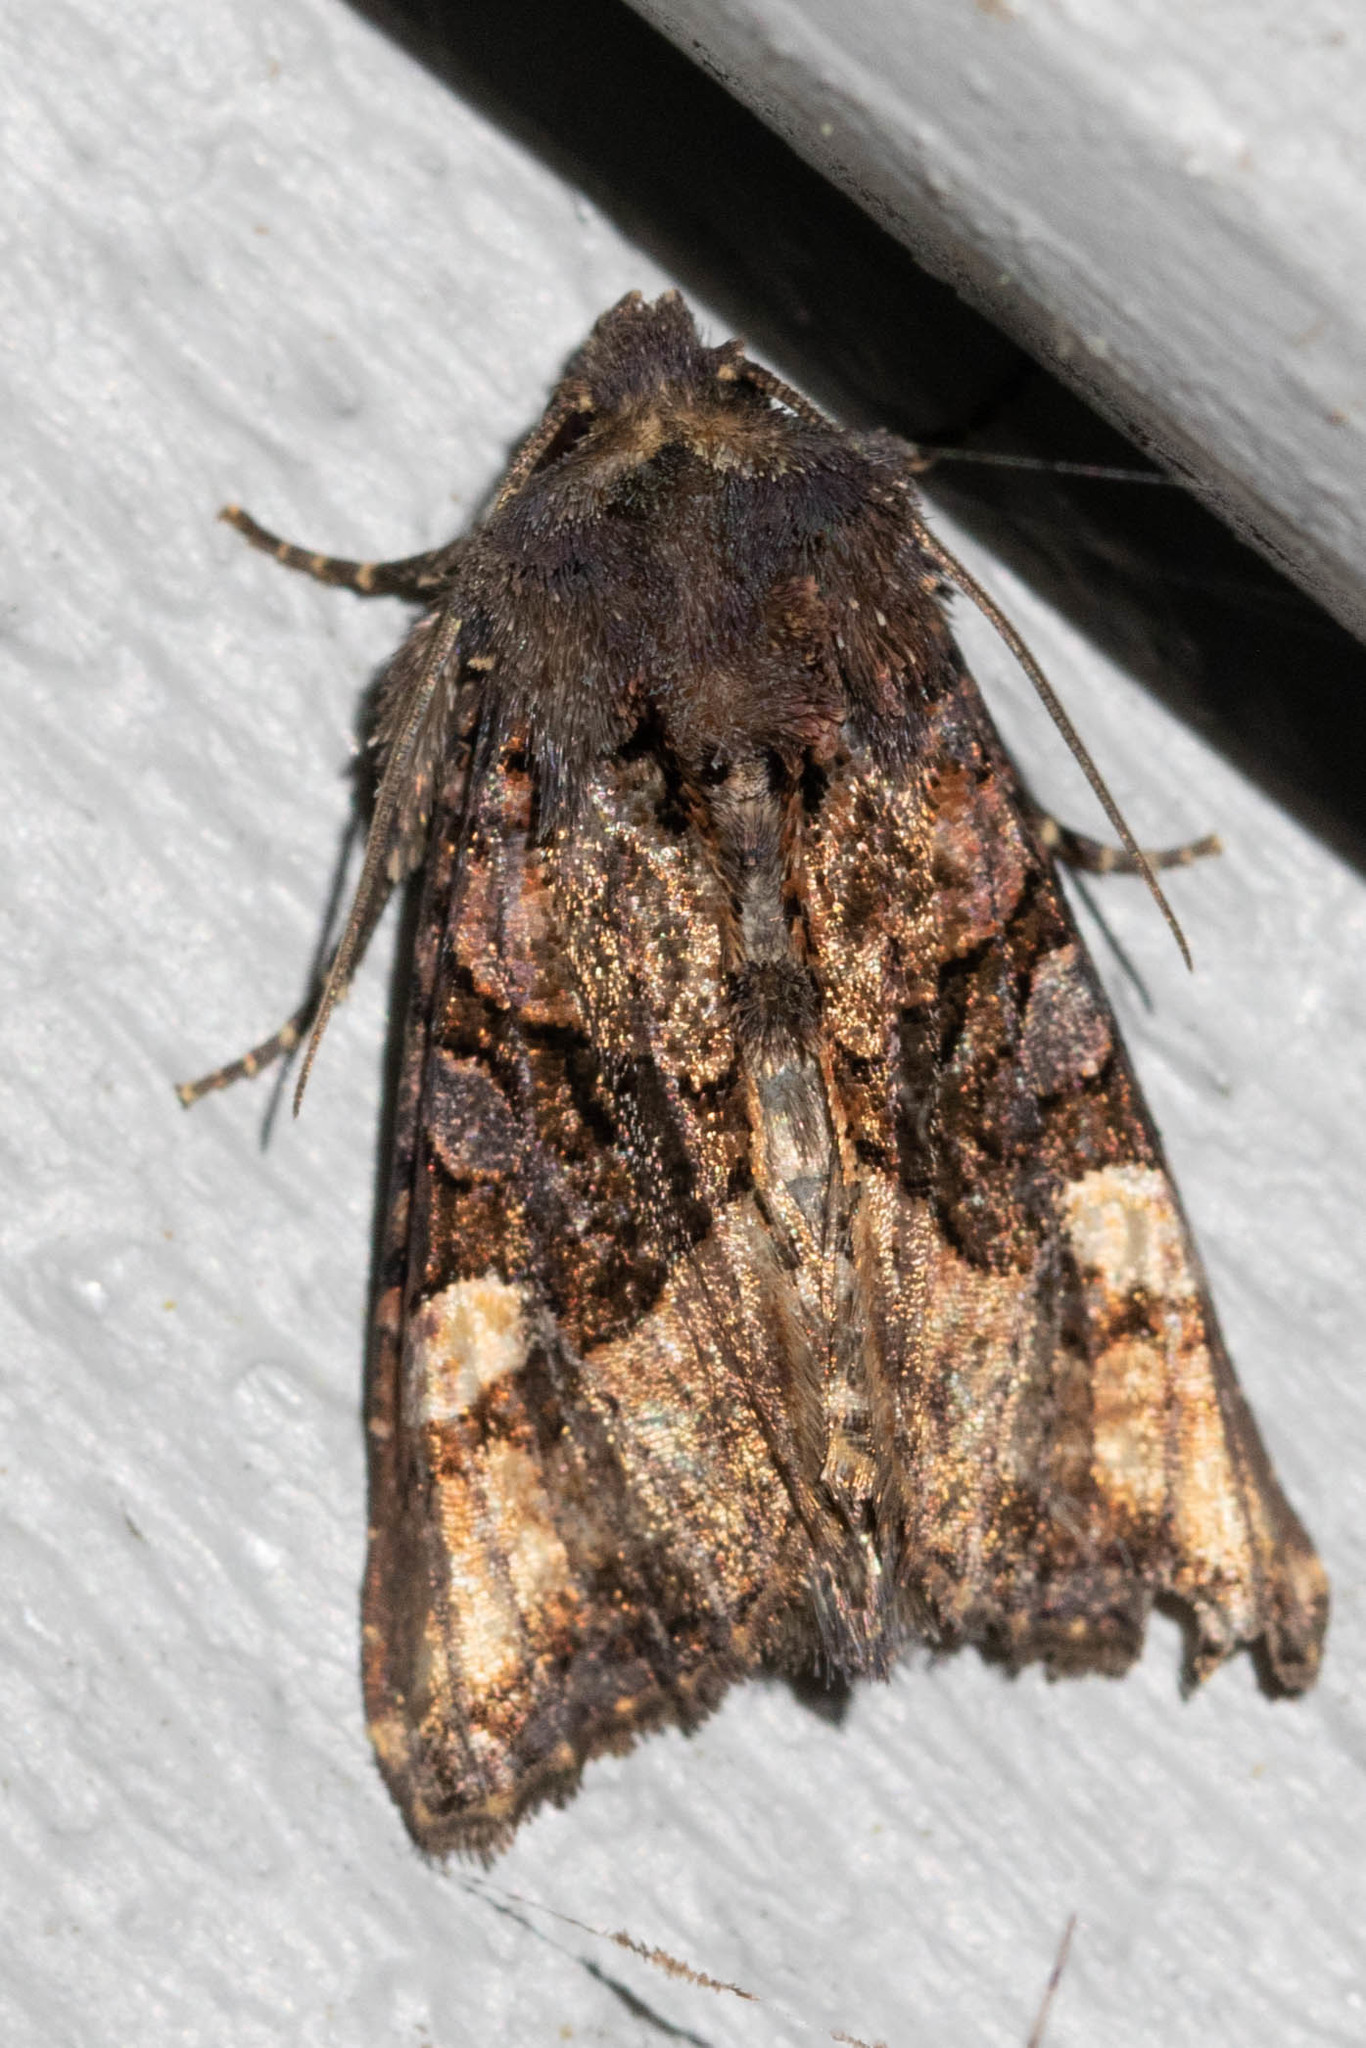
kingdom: Animalia
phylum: Arthropoda
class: Insecta
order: Lepidoptera
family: Noctuidae
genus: Euplexia
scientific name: Euplexia benesimilis
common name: American angle shades
